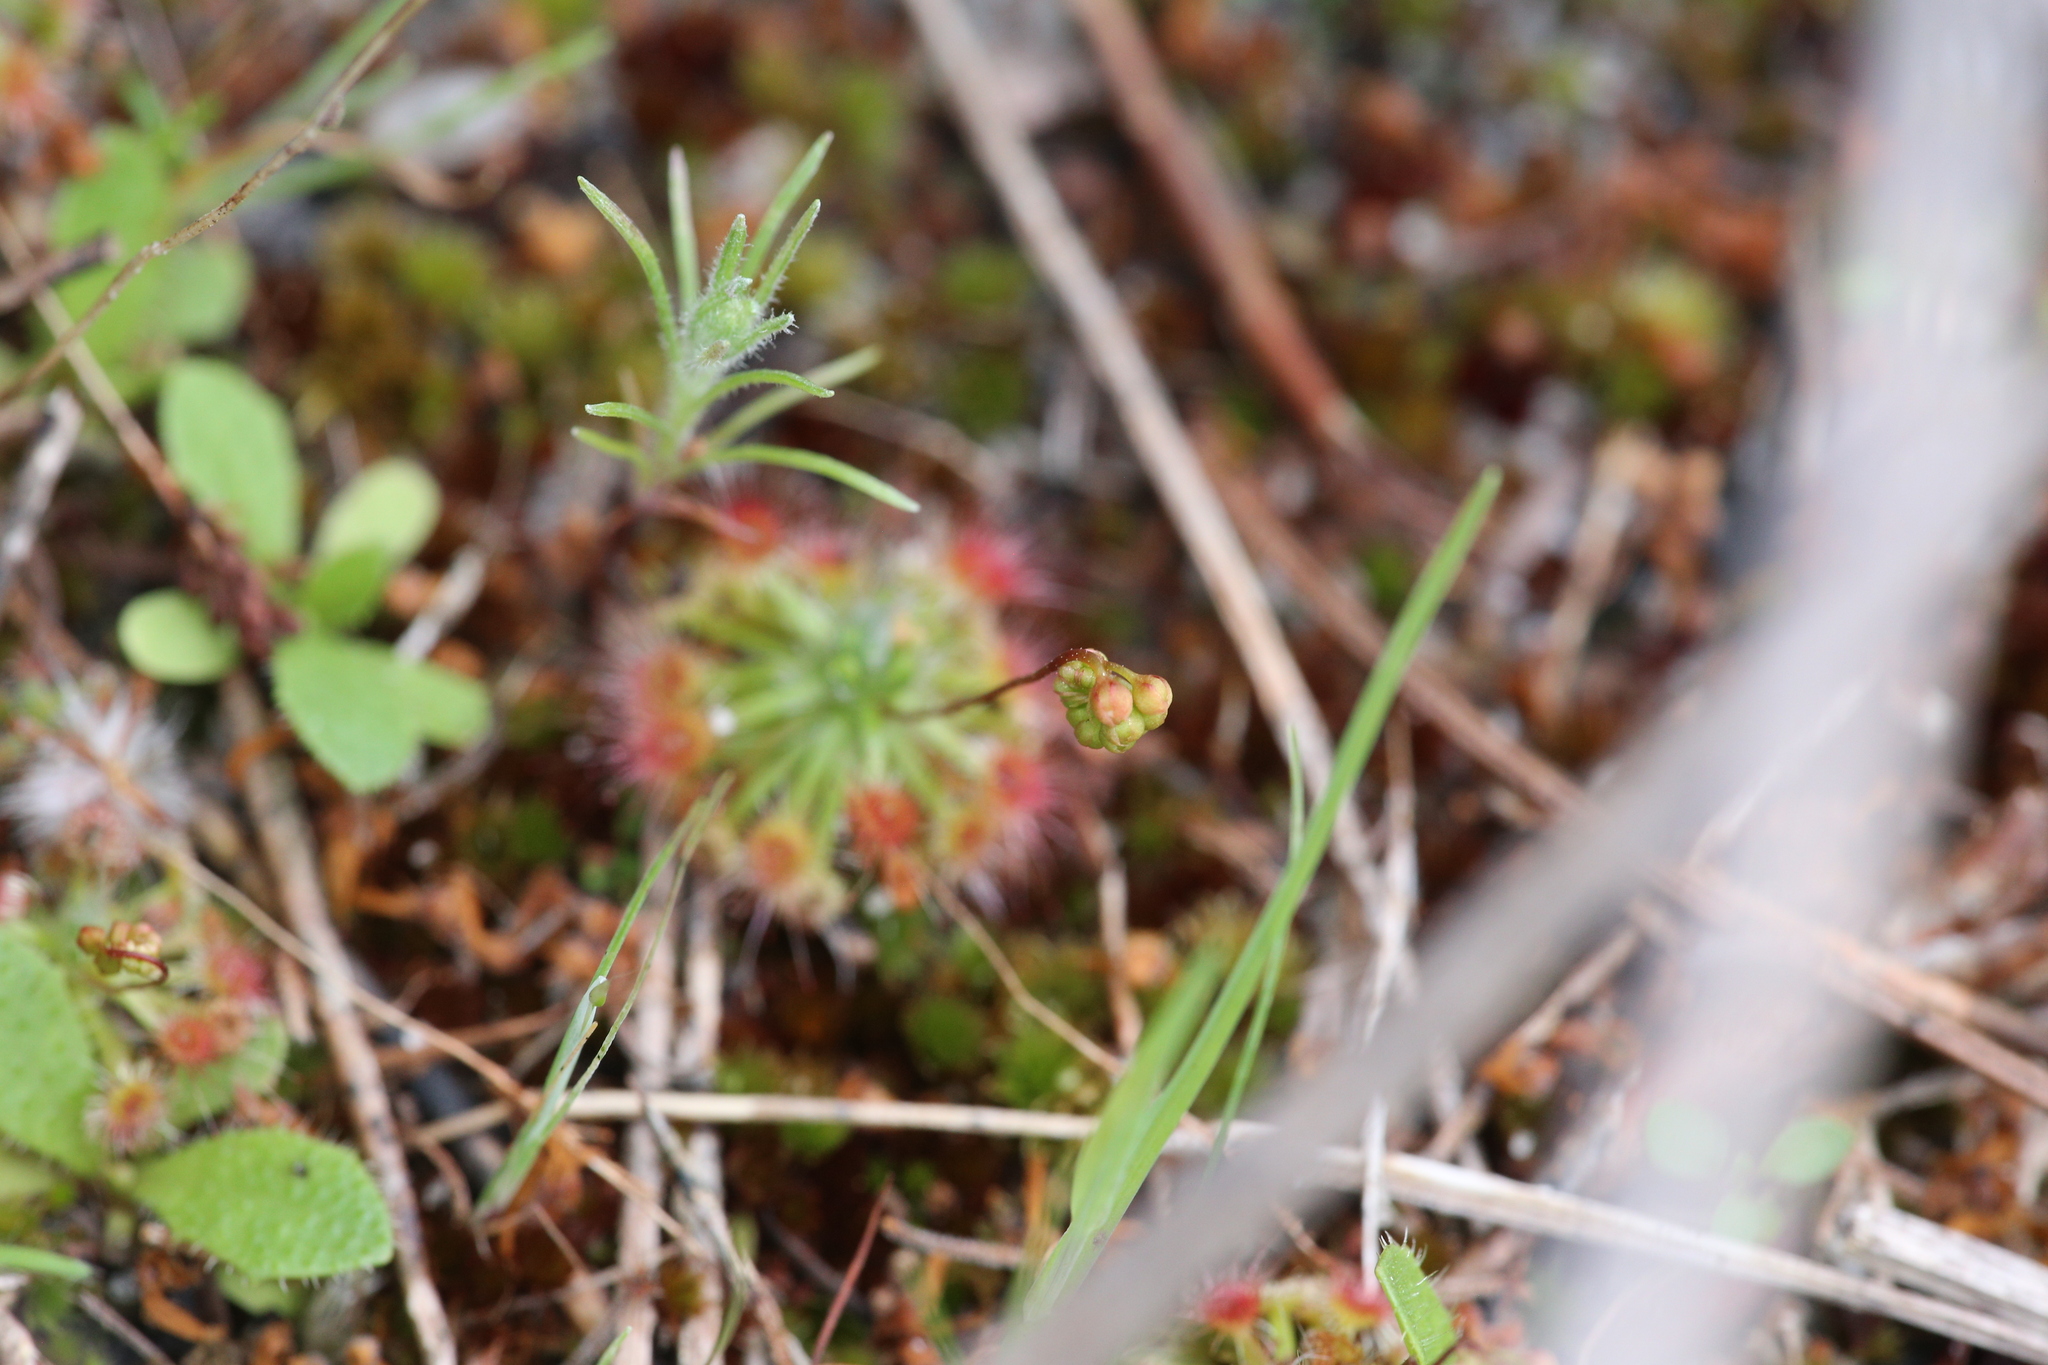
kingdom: Plantae
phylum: Tracheophyta
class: Magnoliopsida
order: Caryophyllales
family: Droseraceae
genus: Drosera
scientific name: Drosera paleacea
